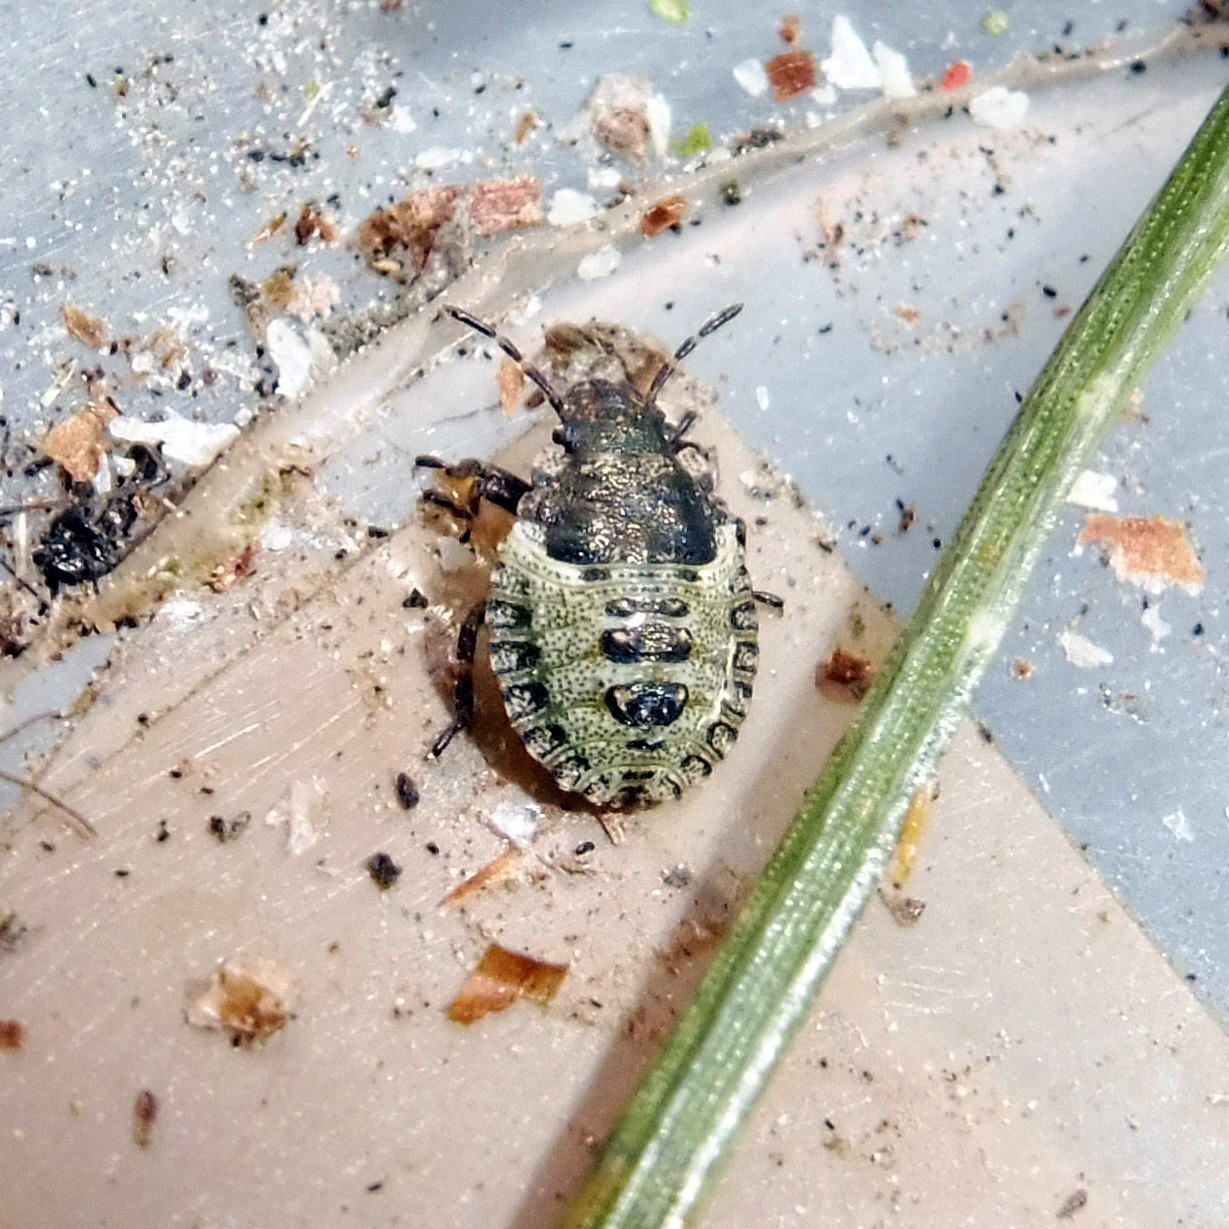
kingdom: Animalia
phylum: Arthropoda
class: Insecta
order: Hemiptera
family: Pentatomidae
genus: Pentatoma
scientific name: Pentatoma rufipes
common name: Forest bug
